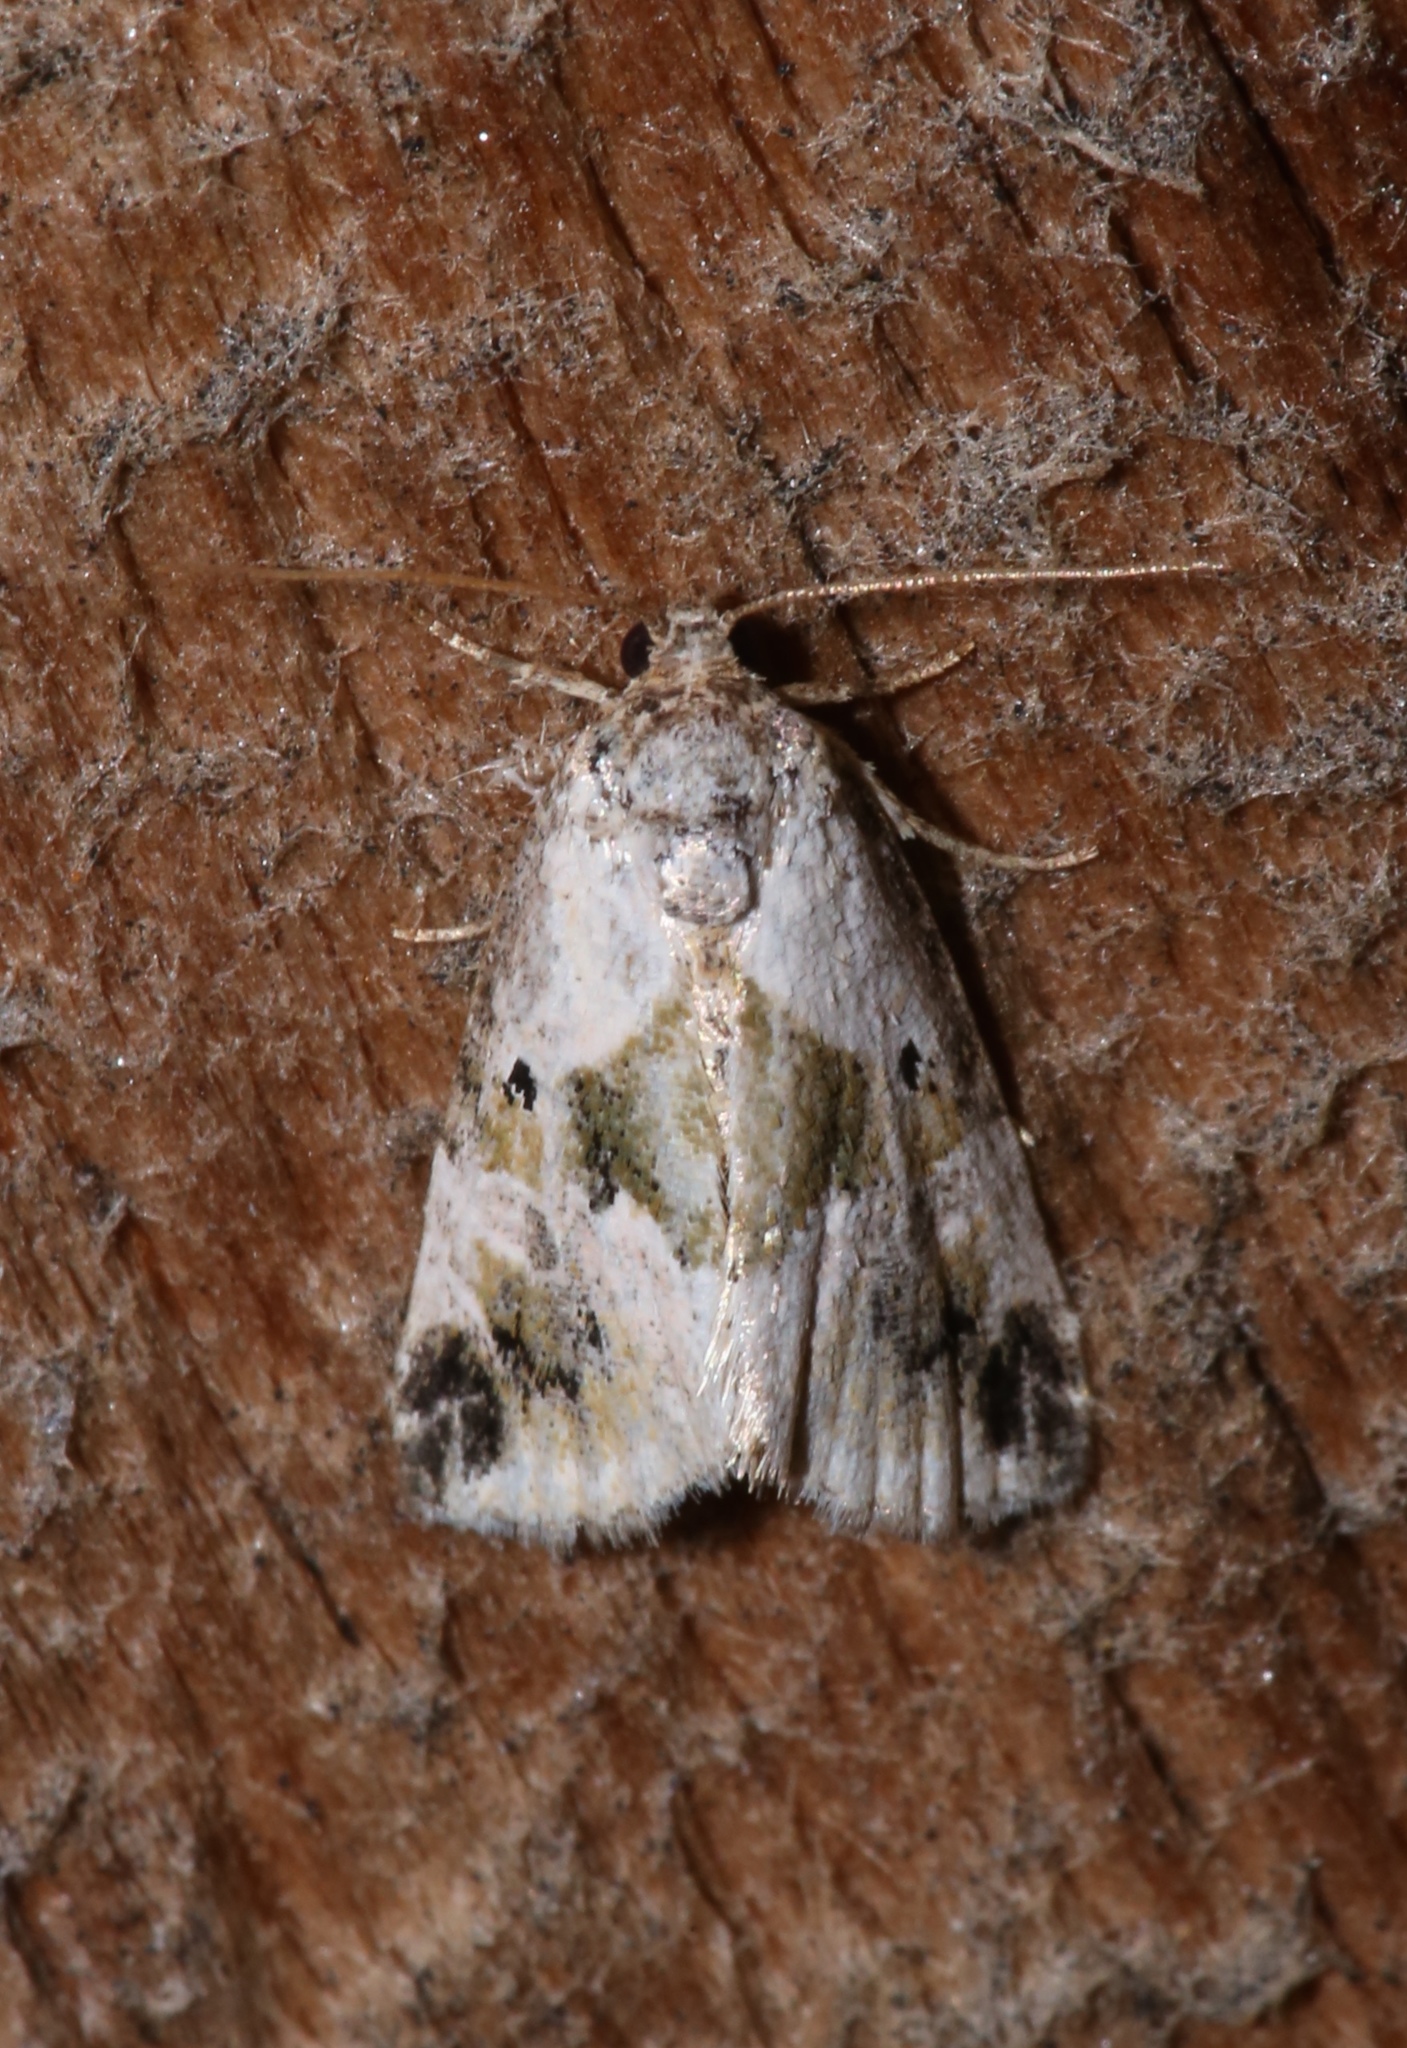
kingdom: Animalia
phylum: Arthropoda
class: Insecta
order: Lepidoptera
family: Noctuidae
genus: Maliattha
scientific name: Maliattha synochitis
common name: Black-dotted glyph
